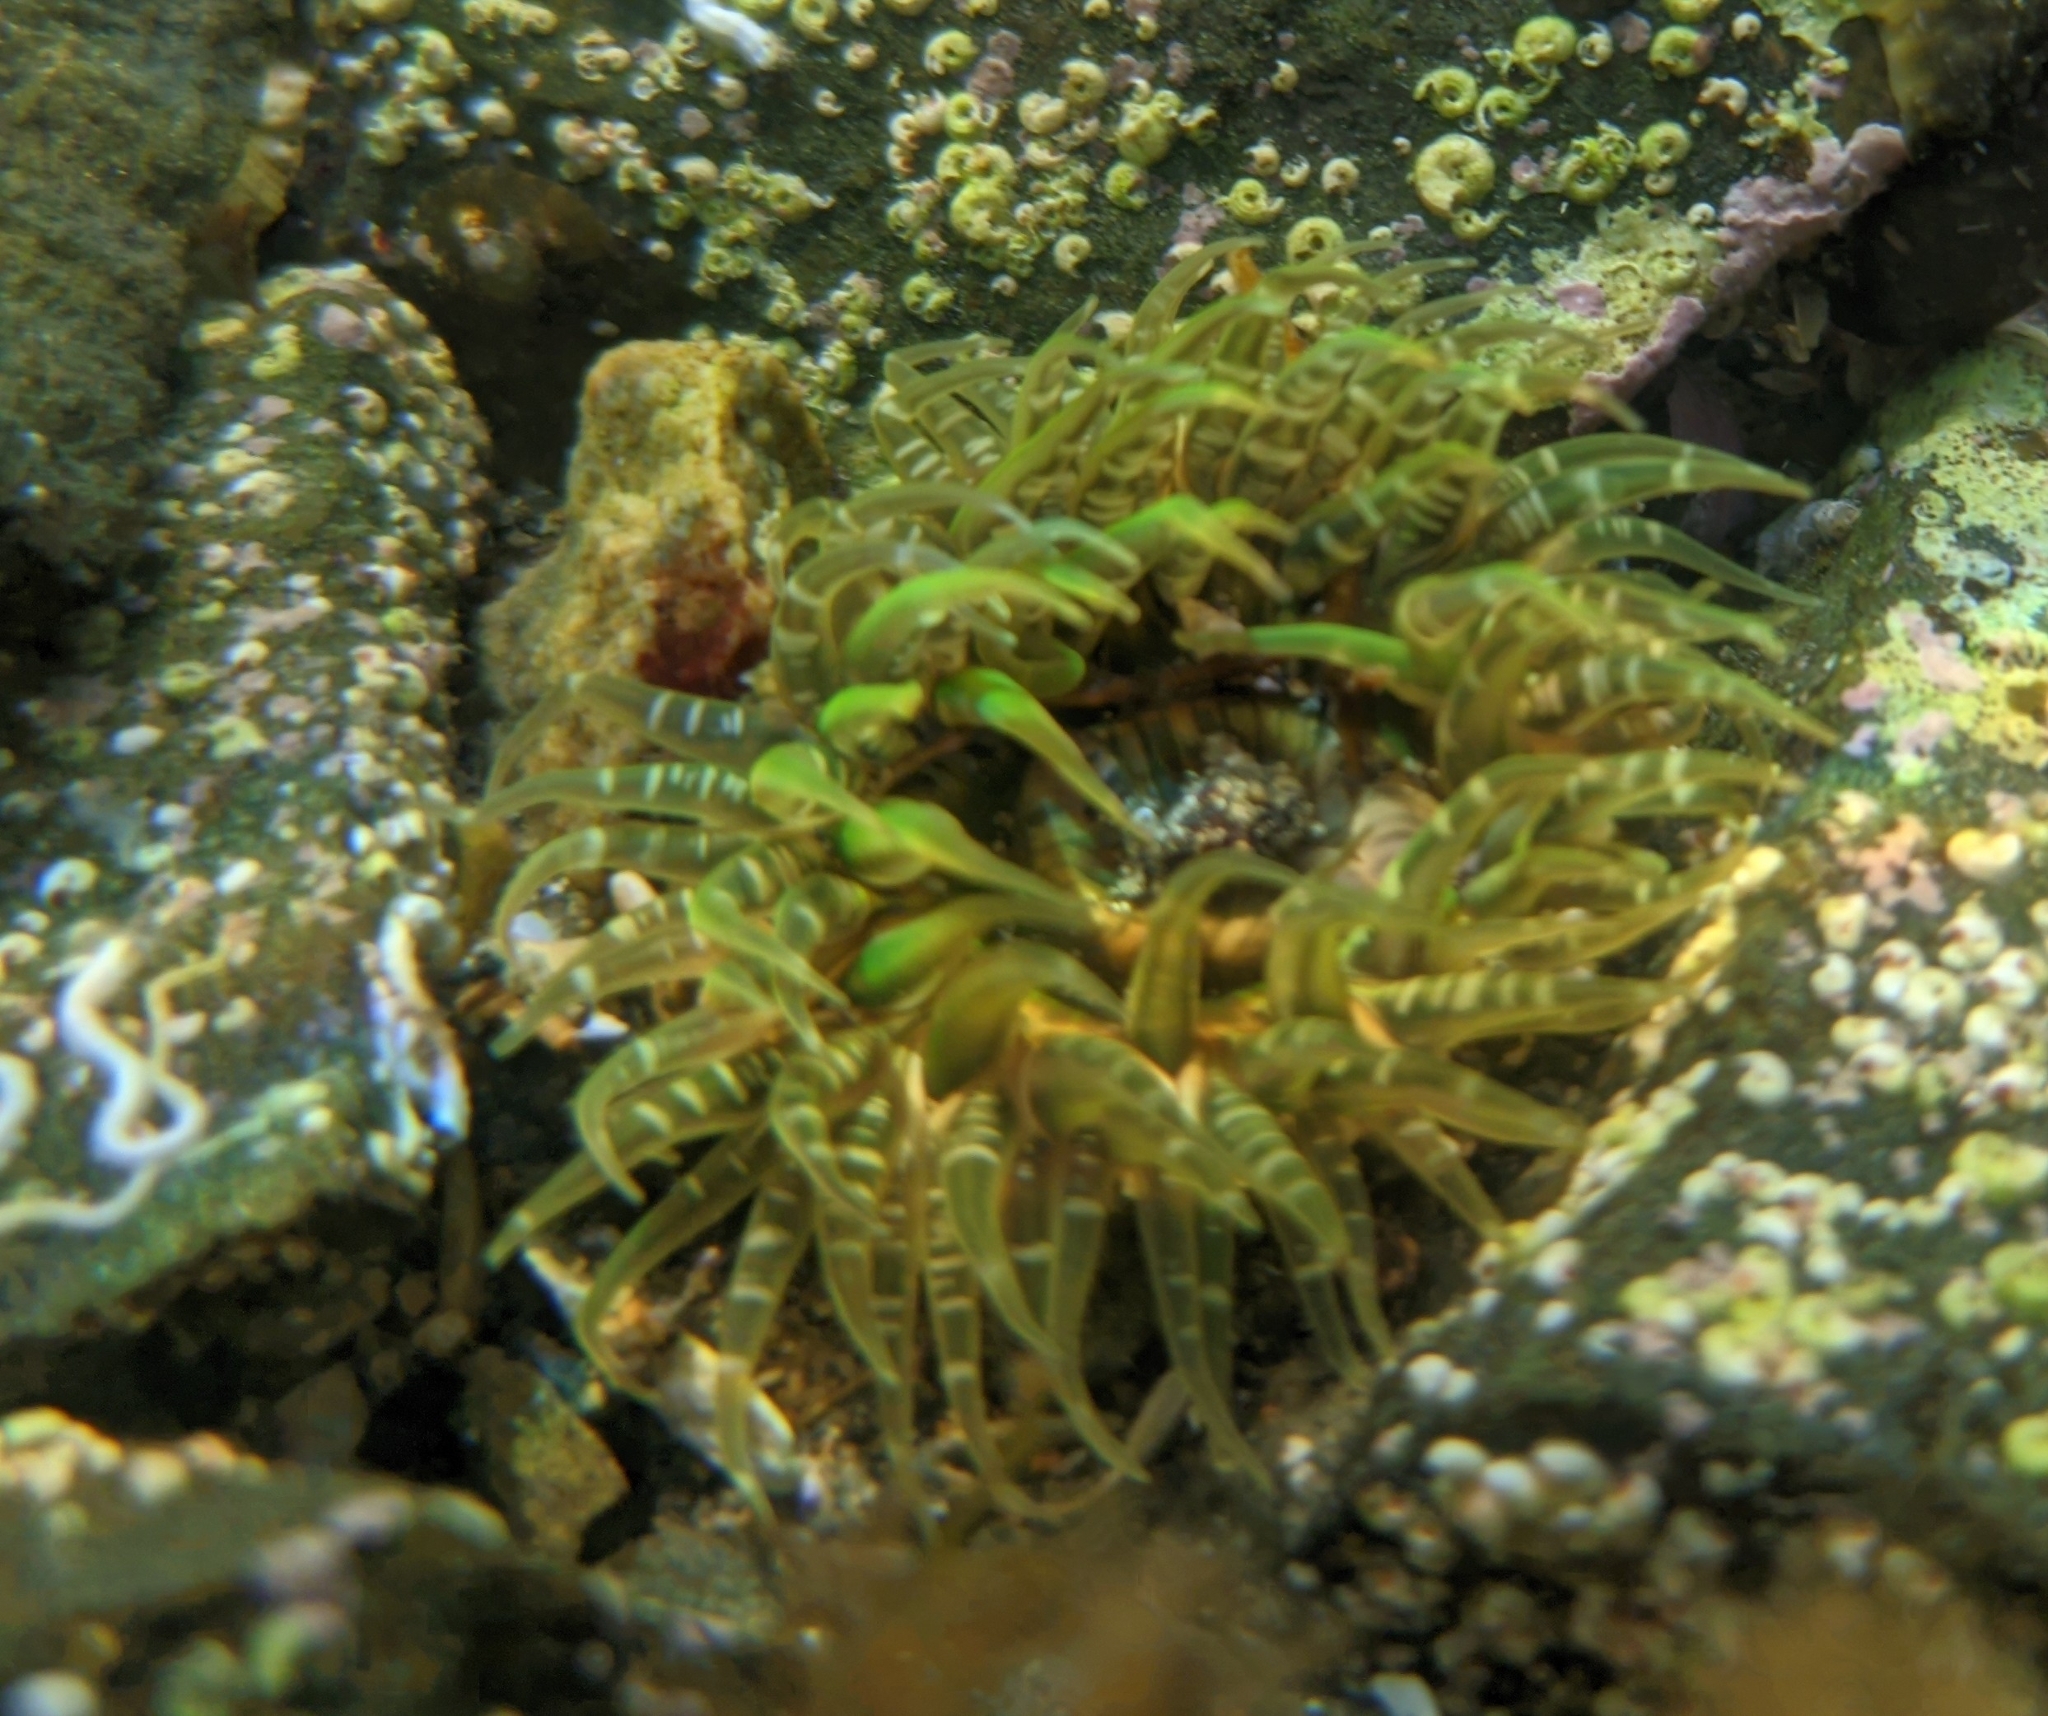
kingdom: Animalia
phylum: Cnidaria
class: Anthozoa
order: Actiniaria
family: Actiniidae
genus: Oulactis
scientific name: Oulactis orientalis
